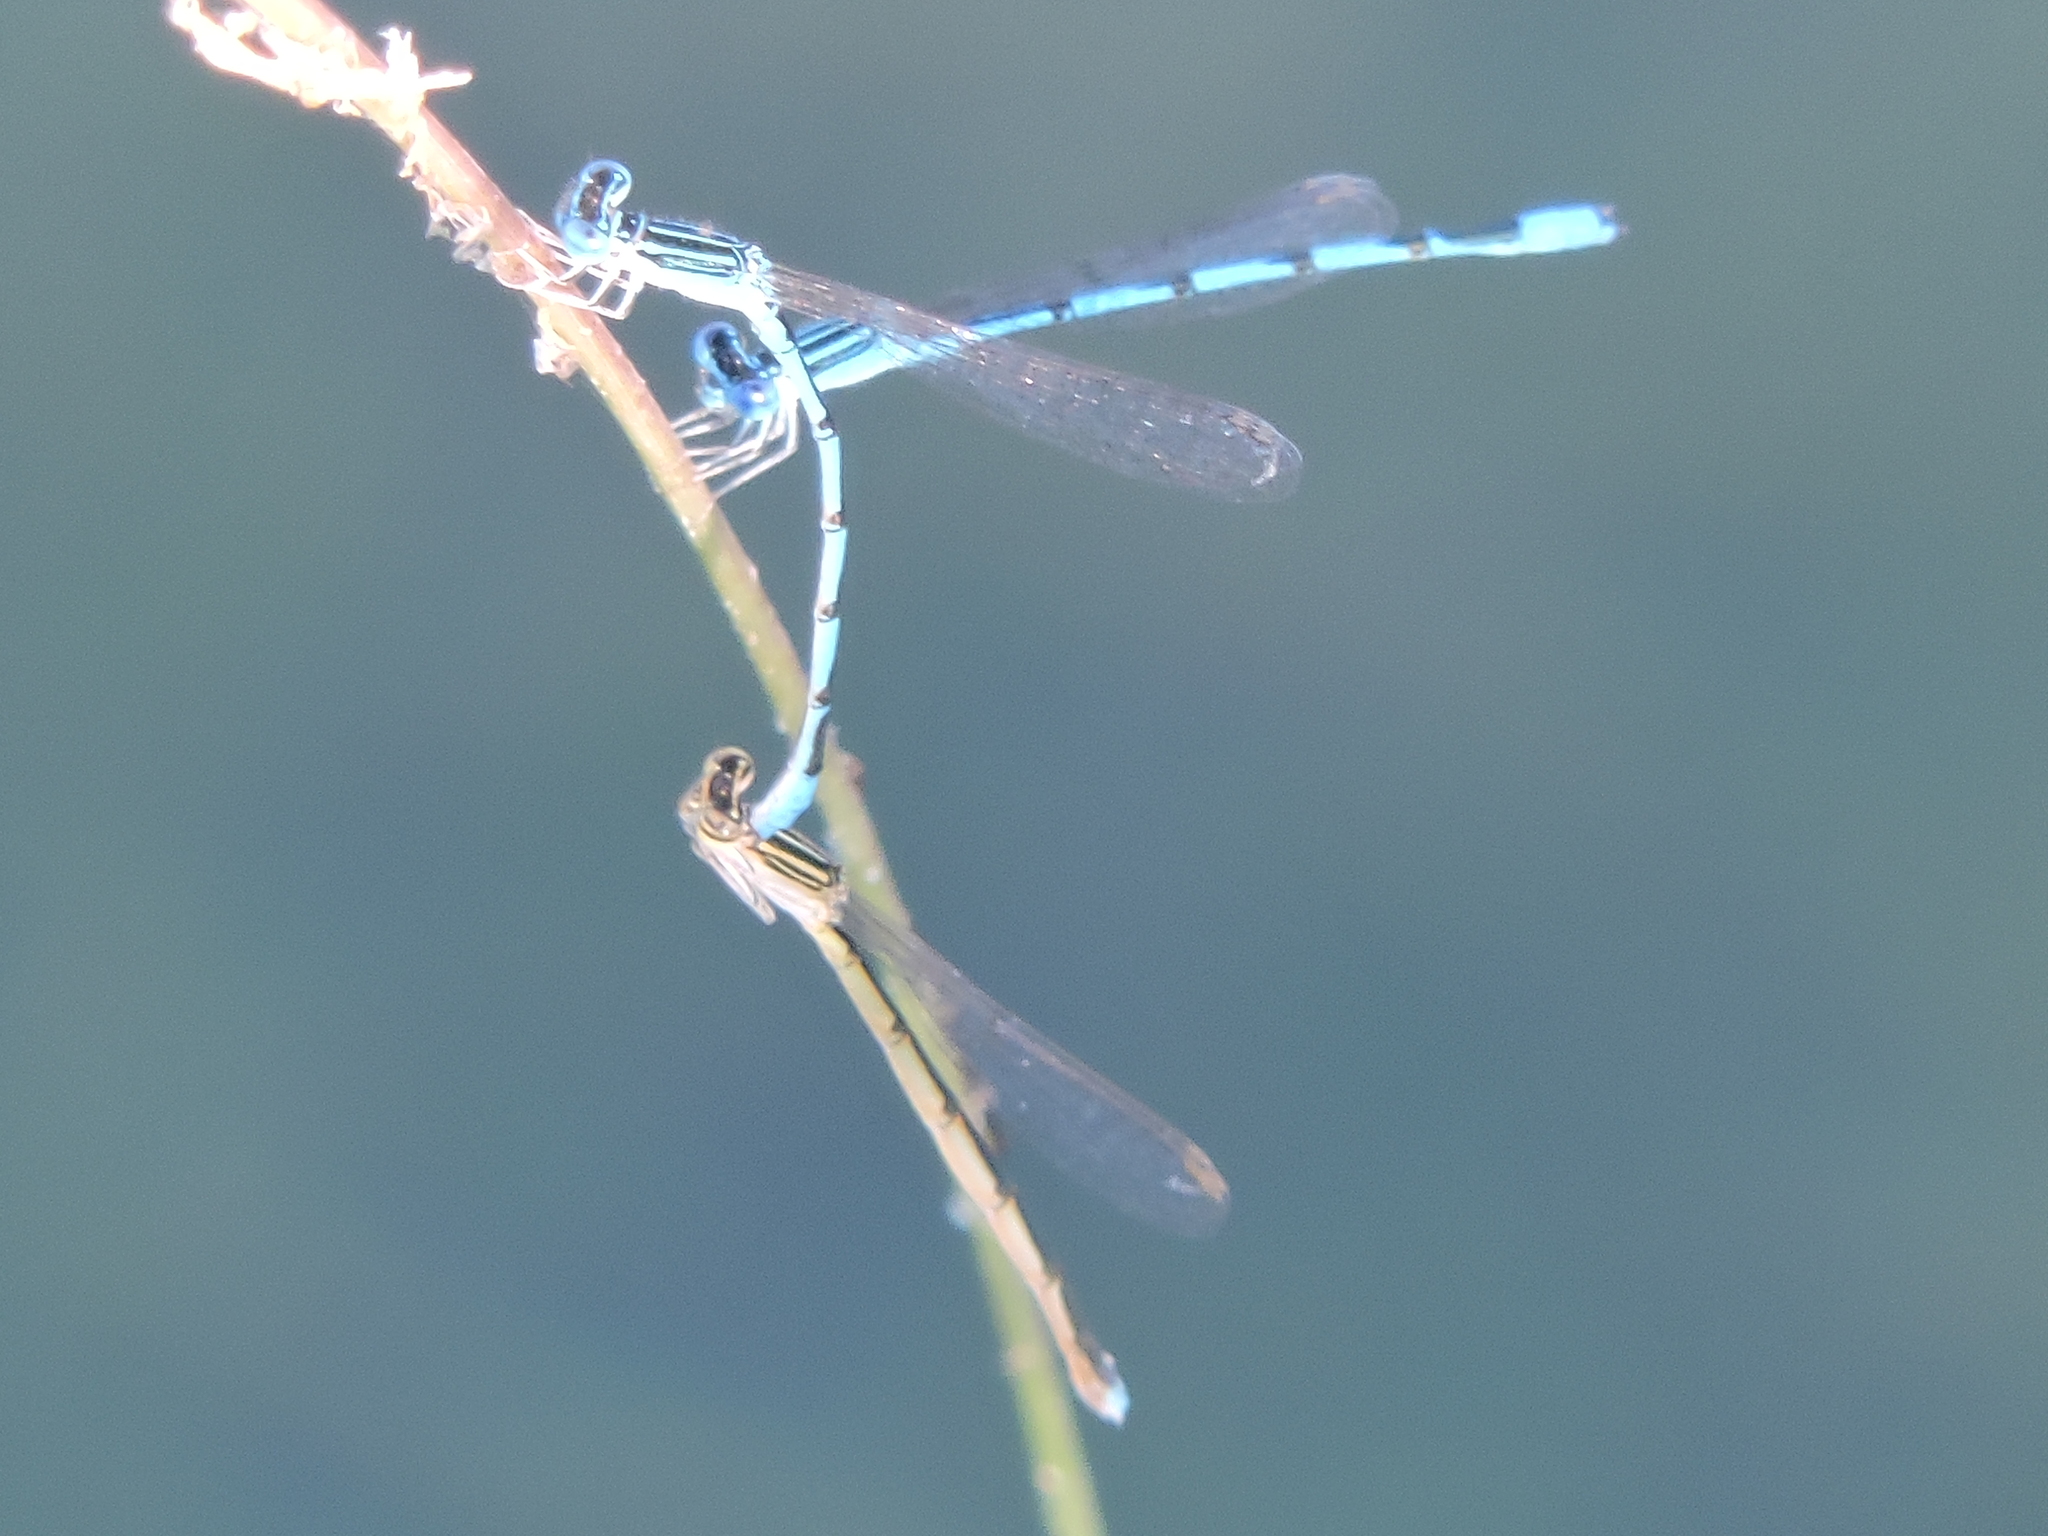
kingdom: Animalia
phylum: Arthropoda
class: Insecta
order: Odonata
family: Coenagrionidae
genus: Enallagma
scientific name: Enallagma basidens
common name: Double-striped bluet
